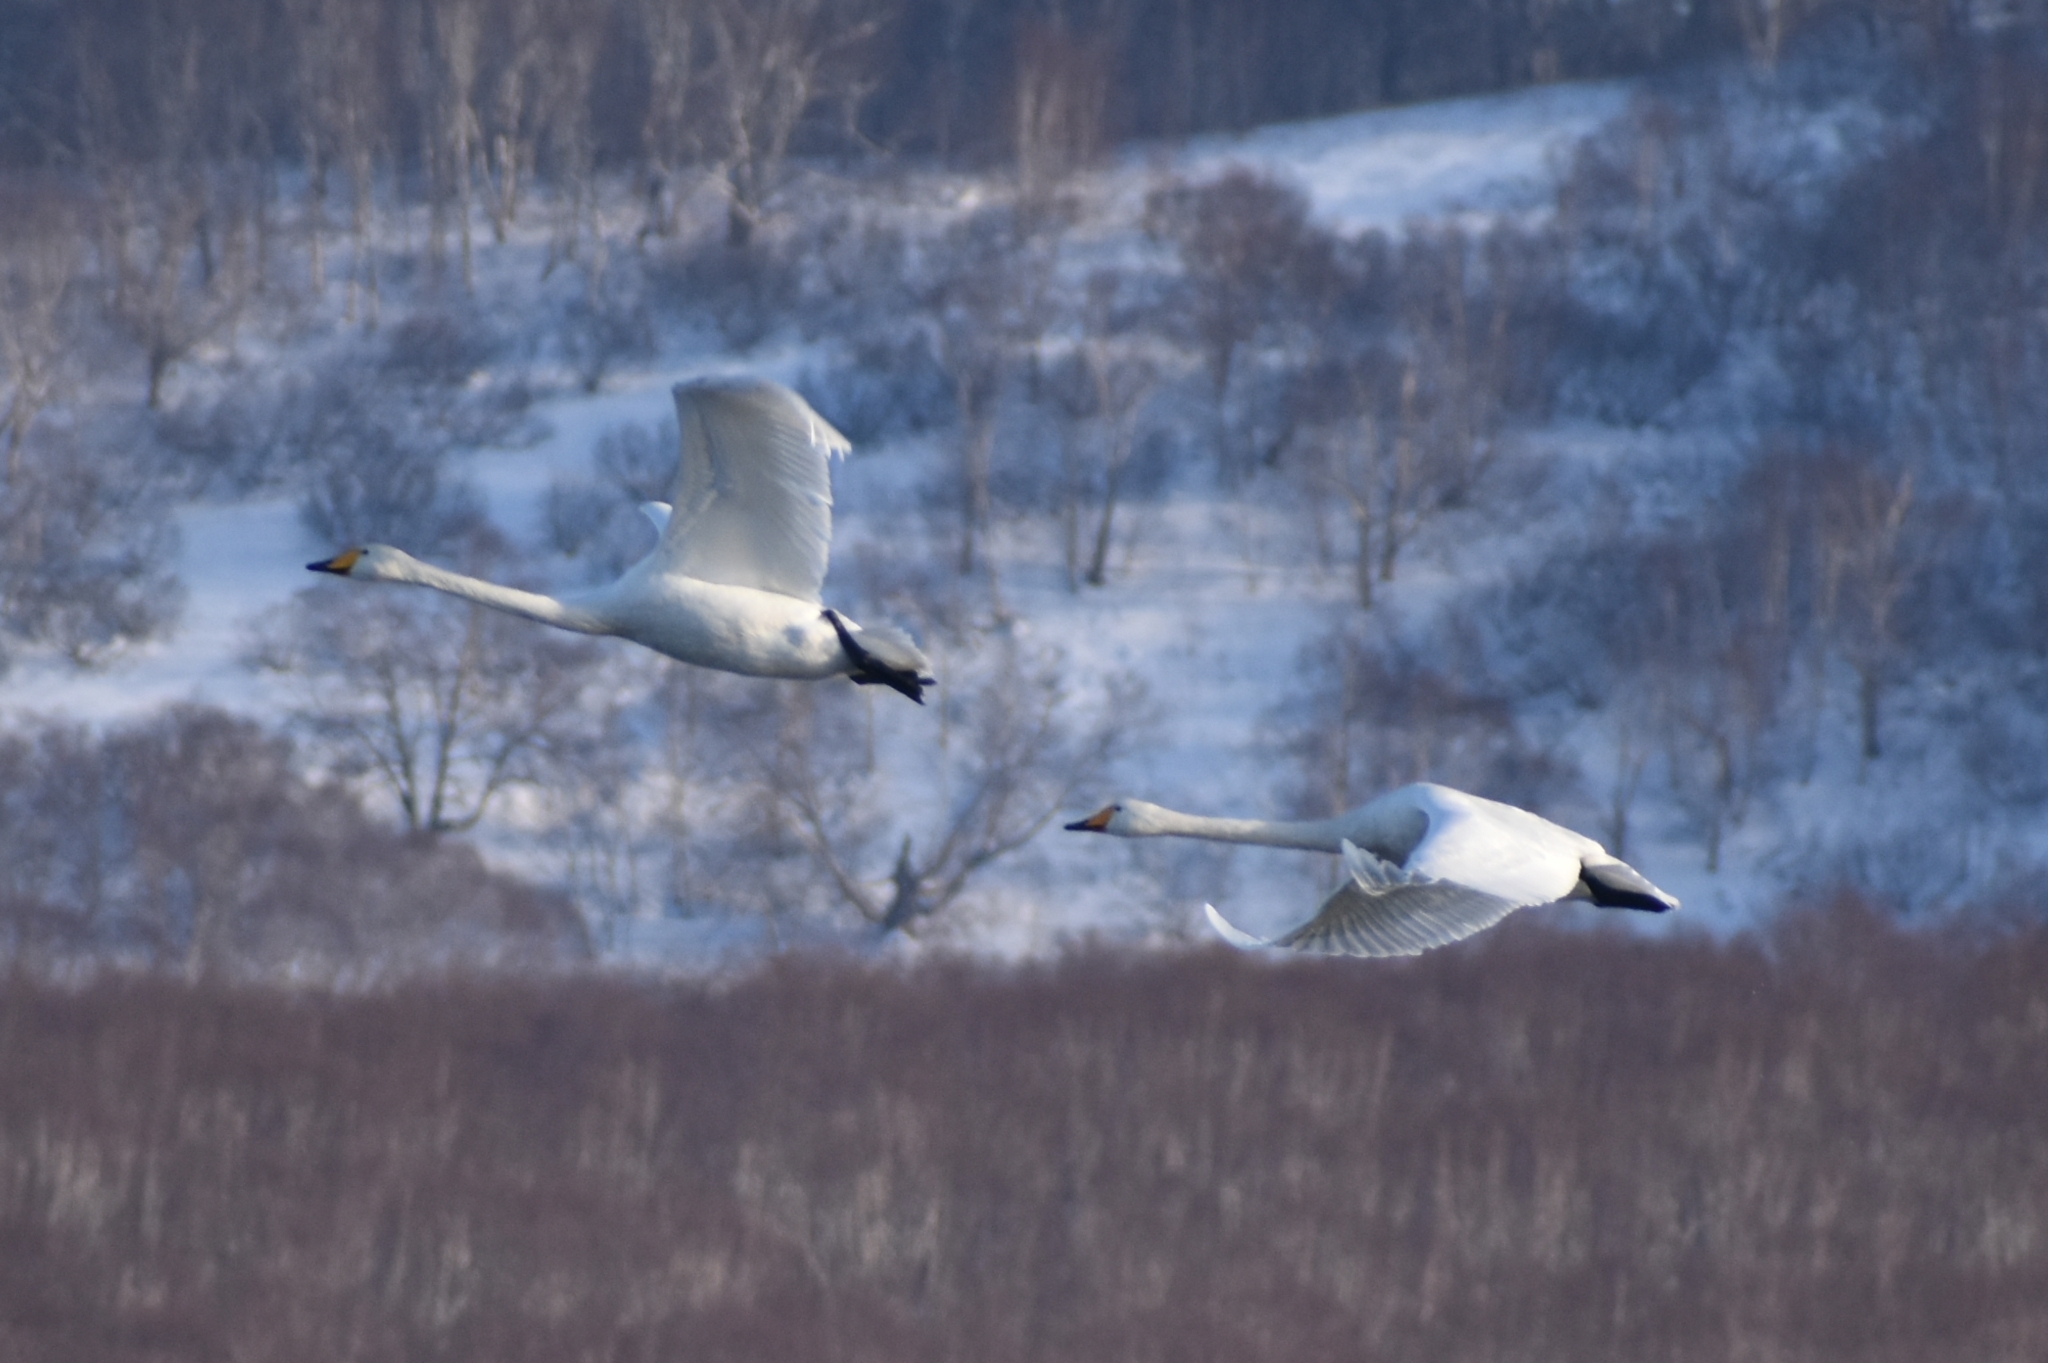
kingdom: Animalia
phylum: Chordata
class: Aves
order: Anseriformes
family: Anatidae
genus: Cygnus
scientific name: Cygnus cygnus
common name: Whooper swan
